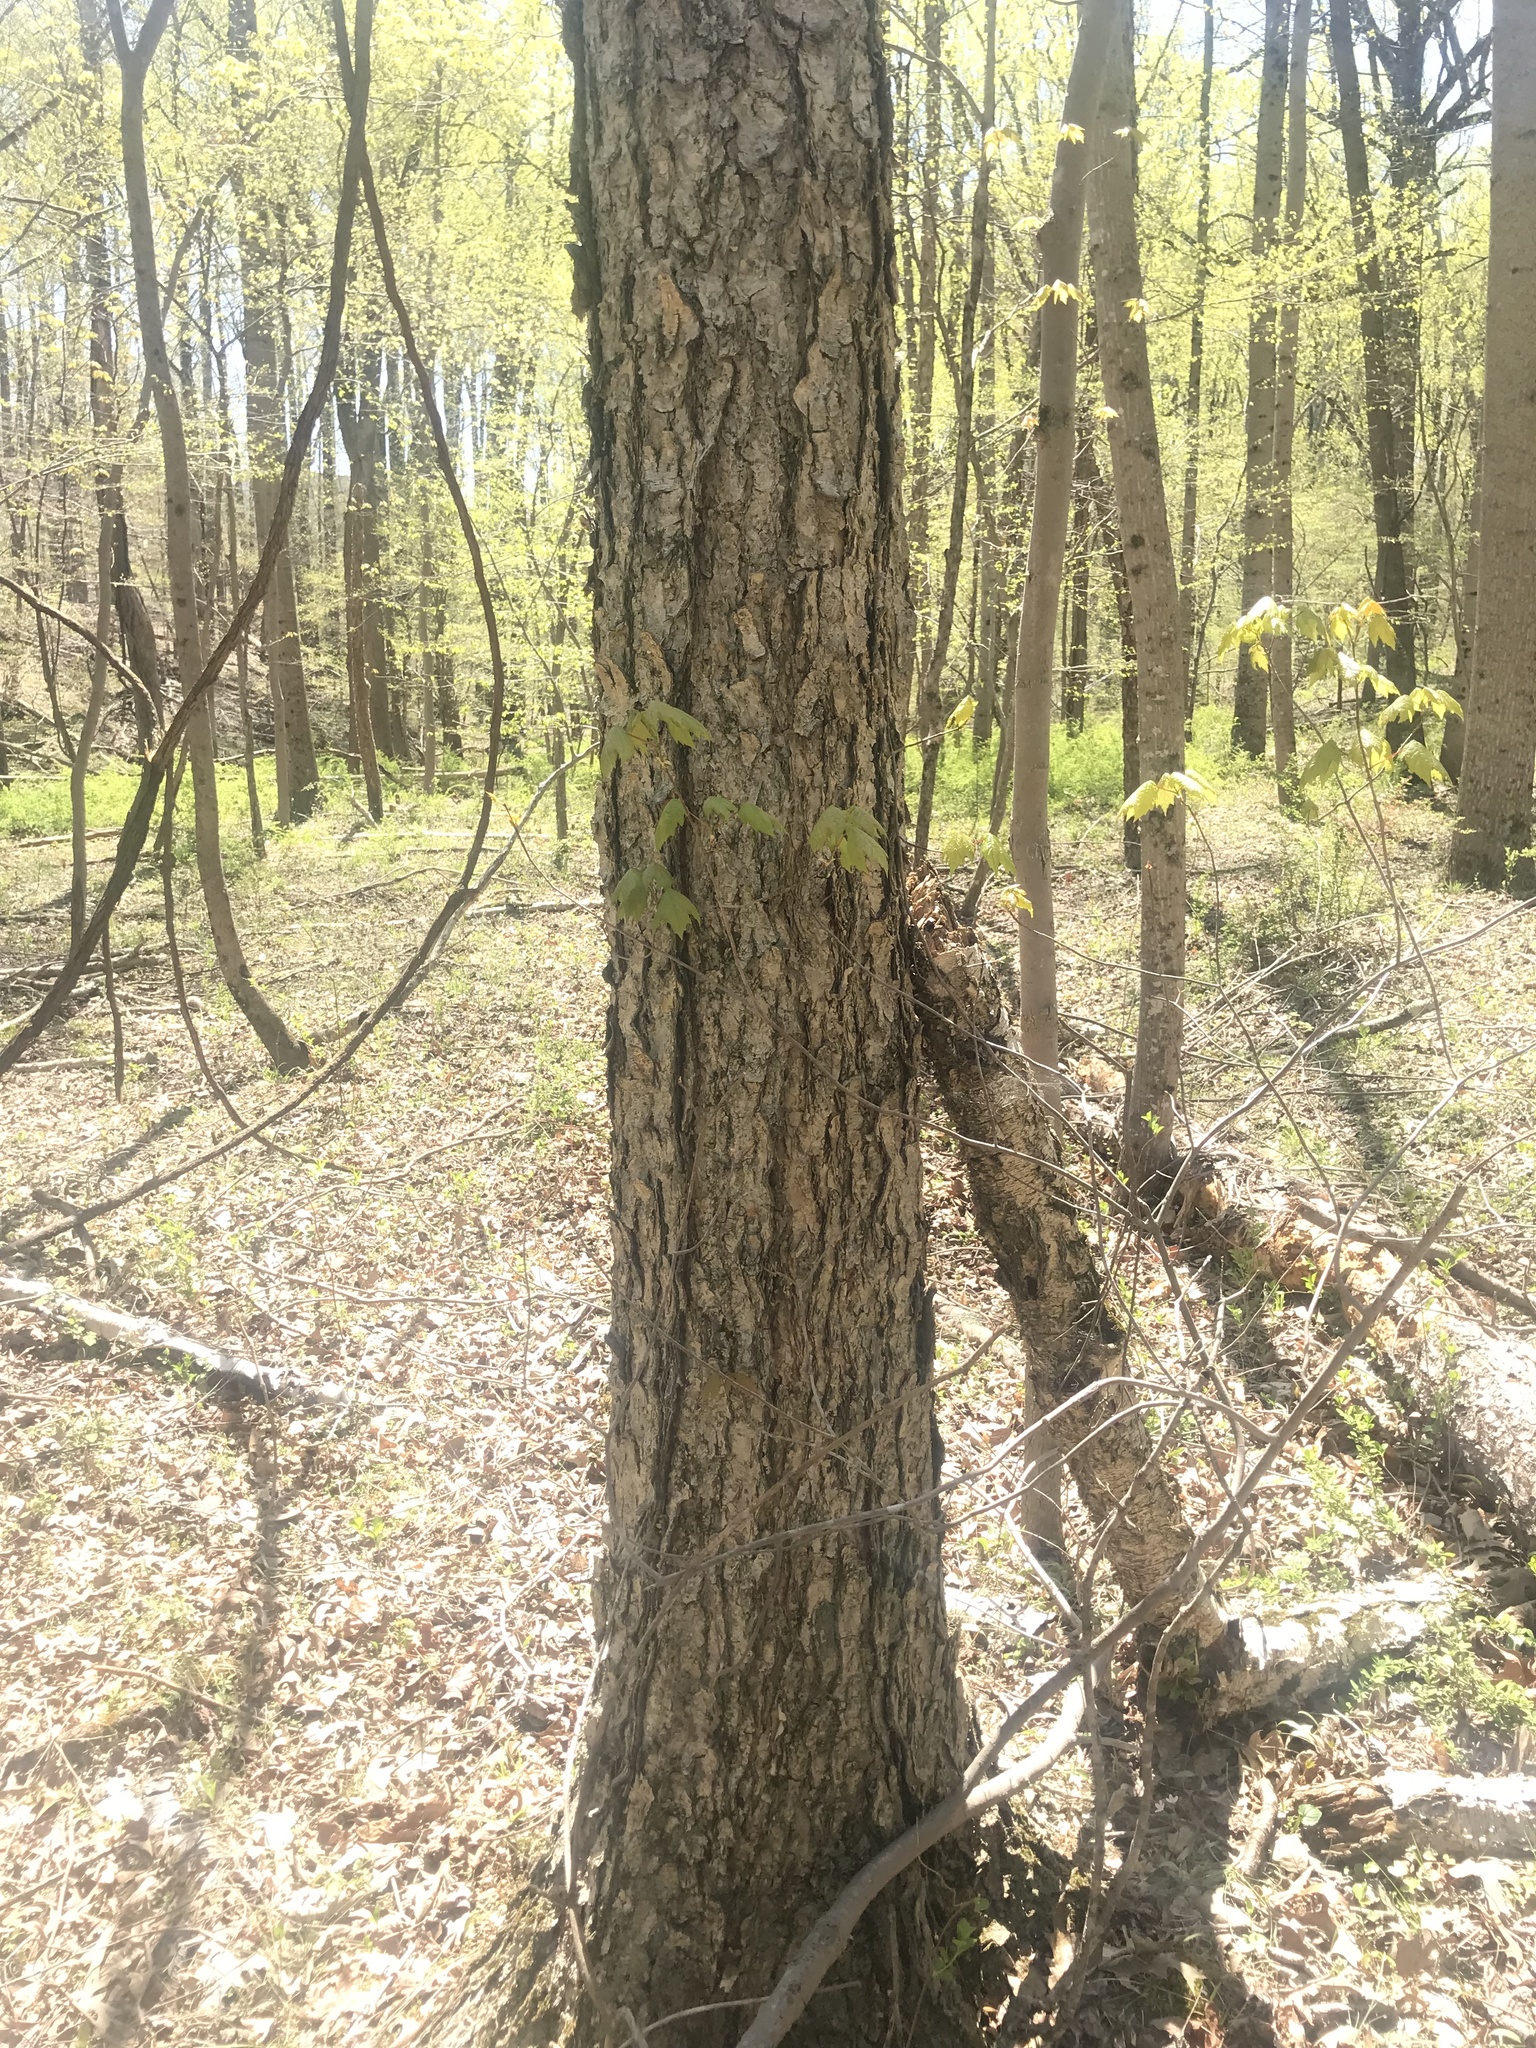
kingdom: Plantae
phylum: Tracheophyta
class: Magnoliopsida
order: Fagales
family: Betulaceae
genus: Betula
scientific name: Betula nigra
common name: Black birch
